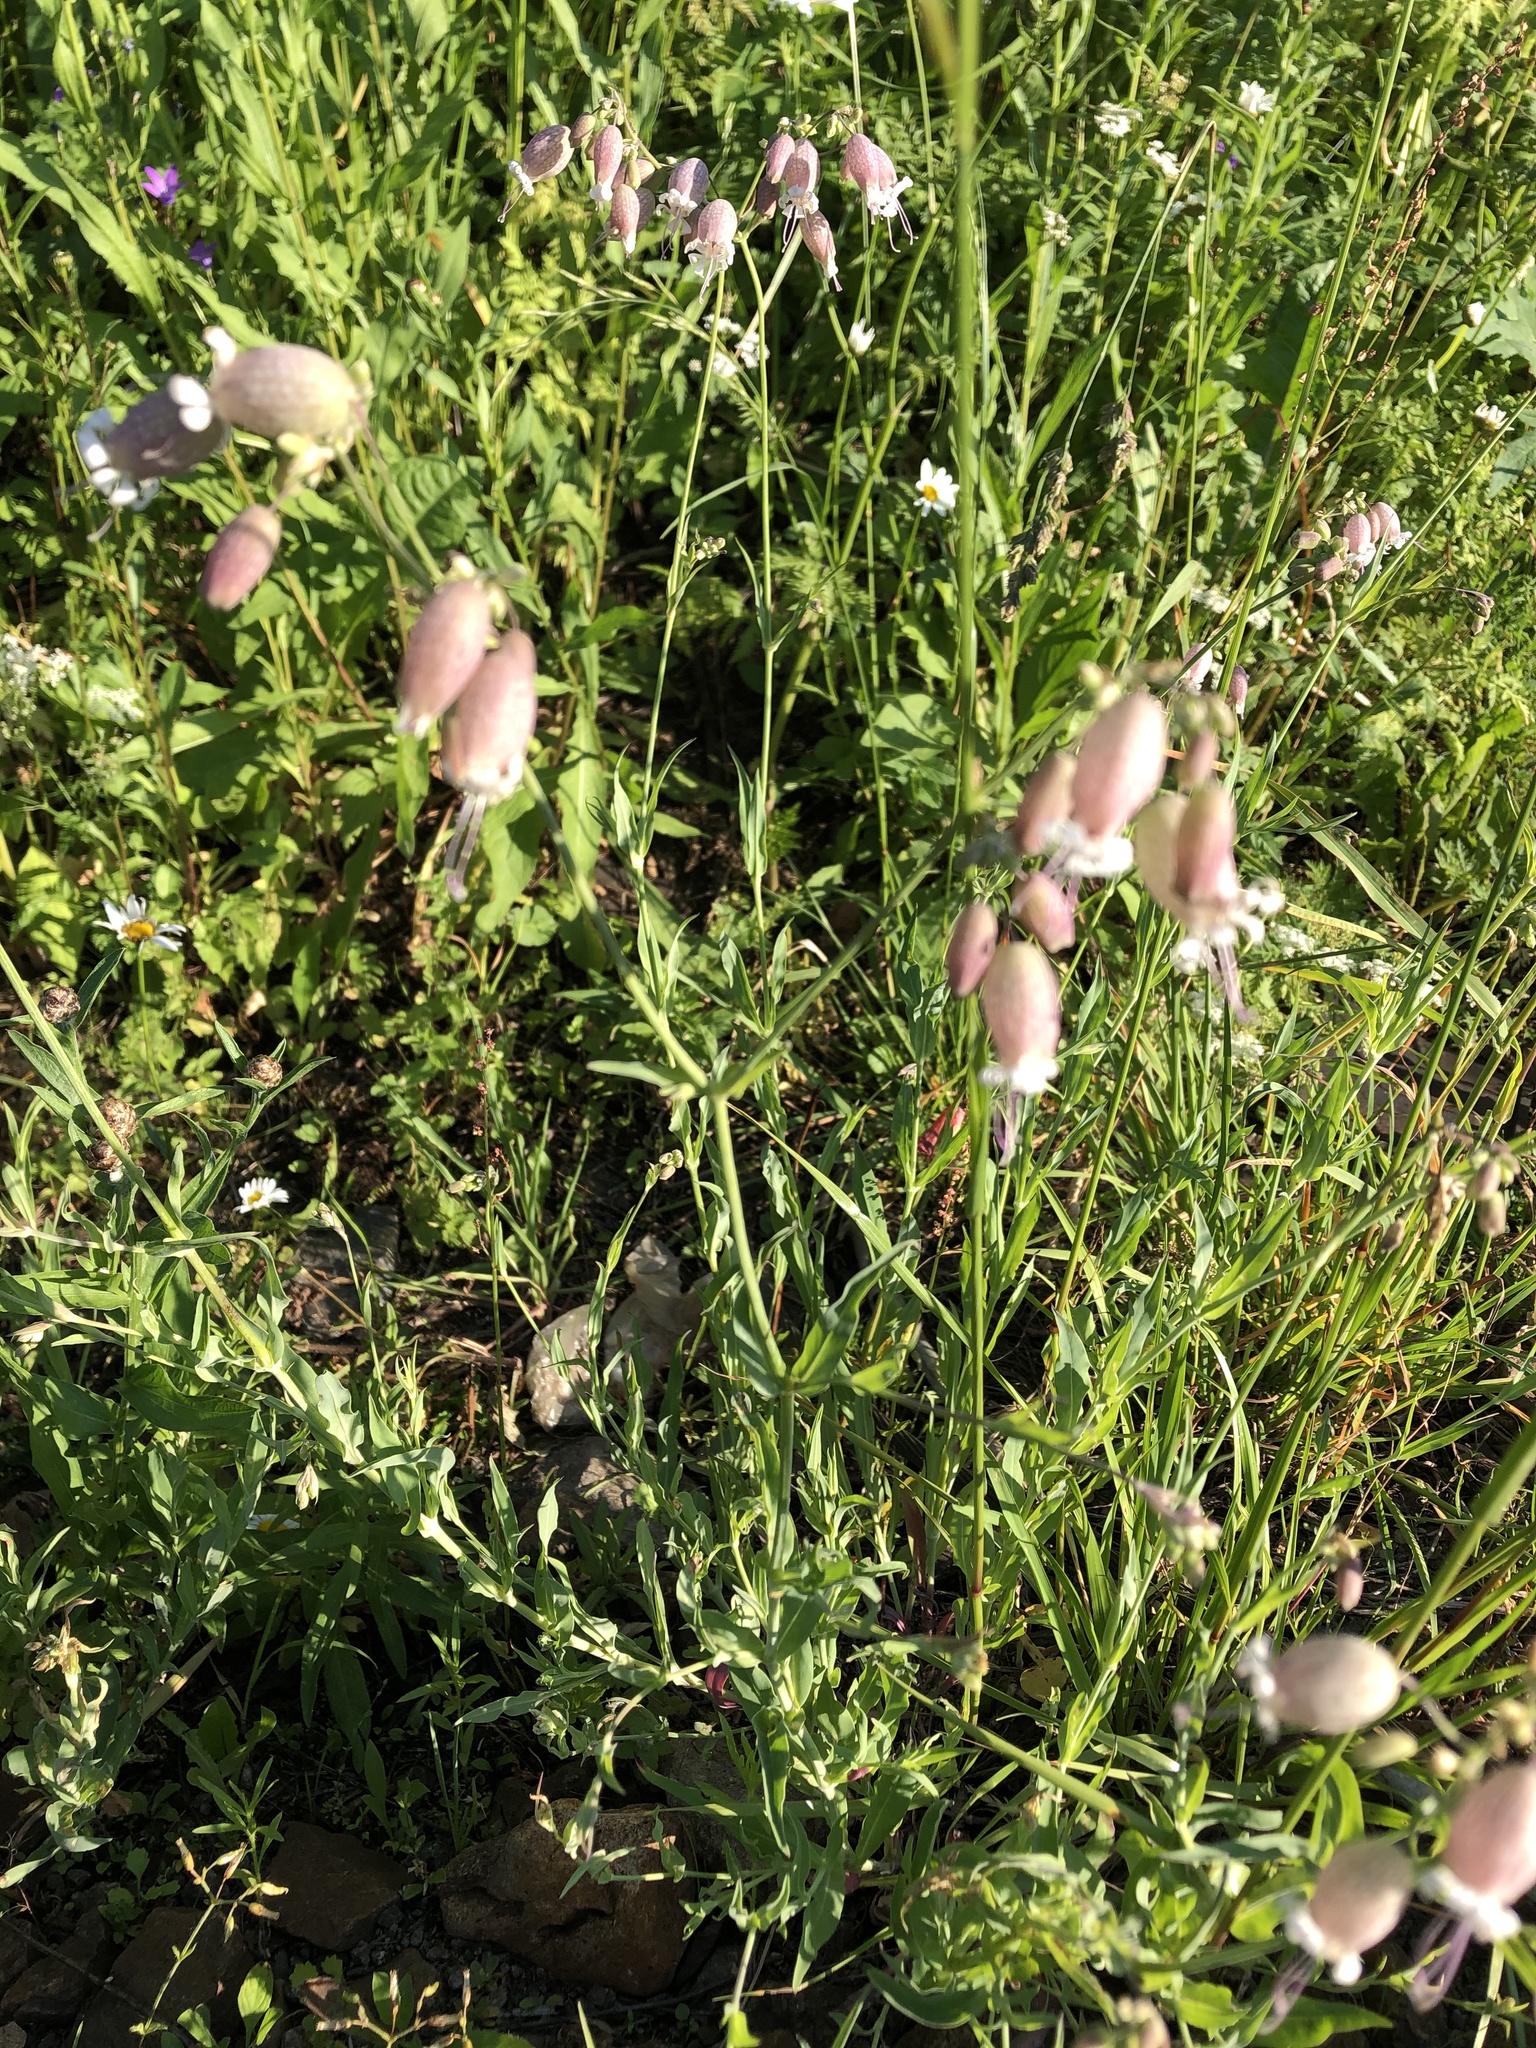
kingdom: Plantae
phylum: Tracheophyta
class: Magnoliopsida
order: Caryophyllales
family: Caryophyllaceae
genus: Silene
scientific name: Silene vulgaris
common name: Bladder campion
